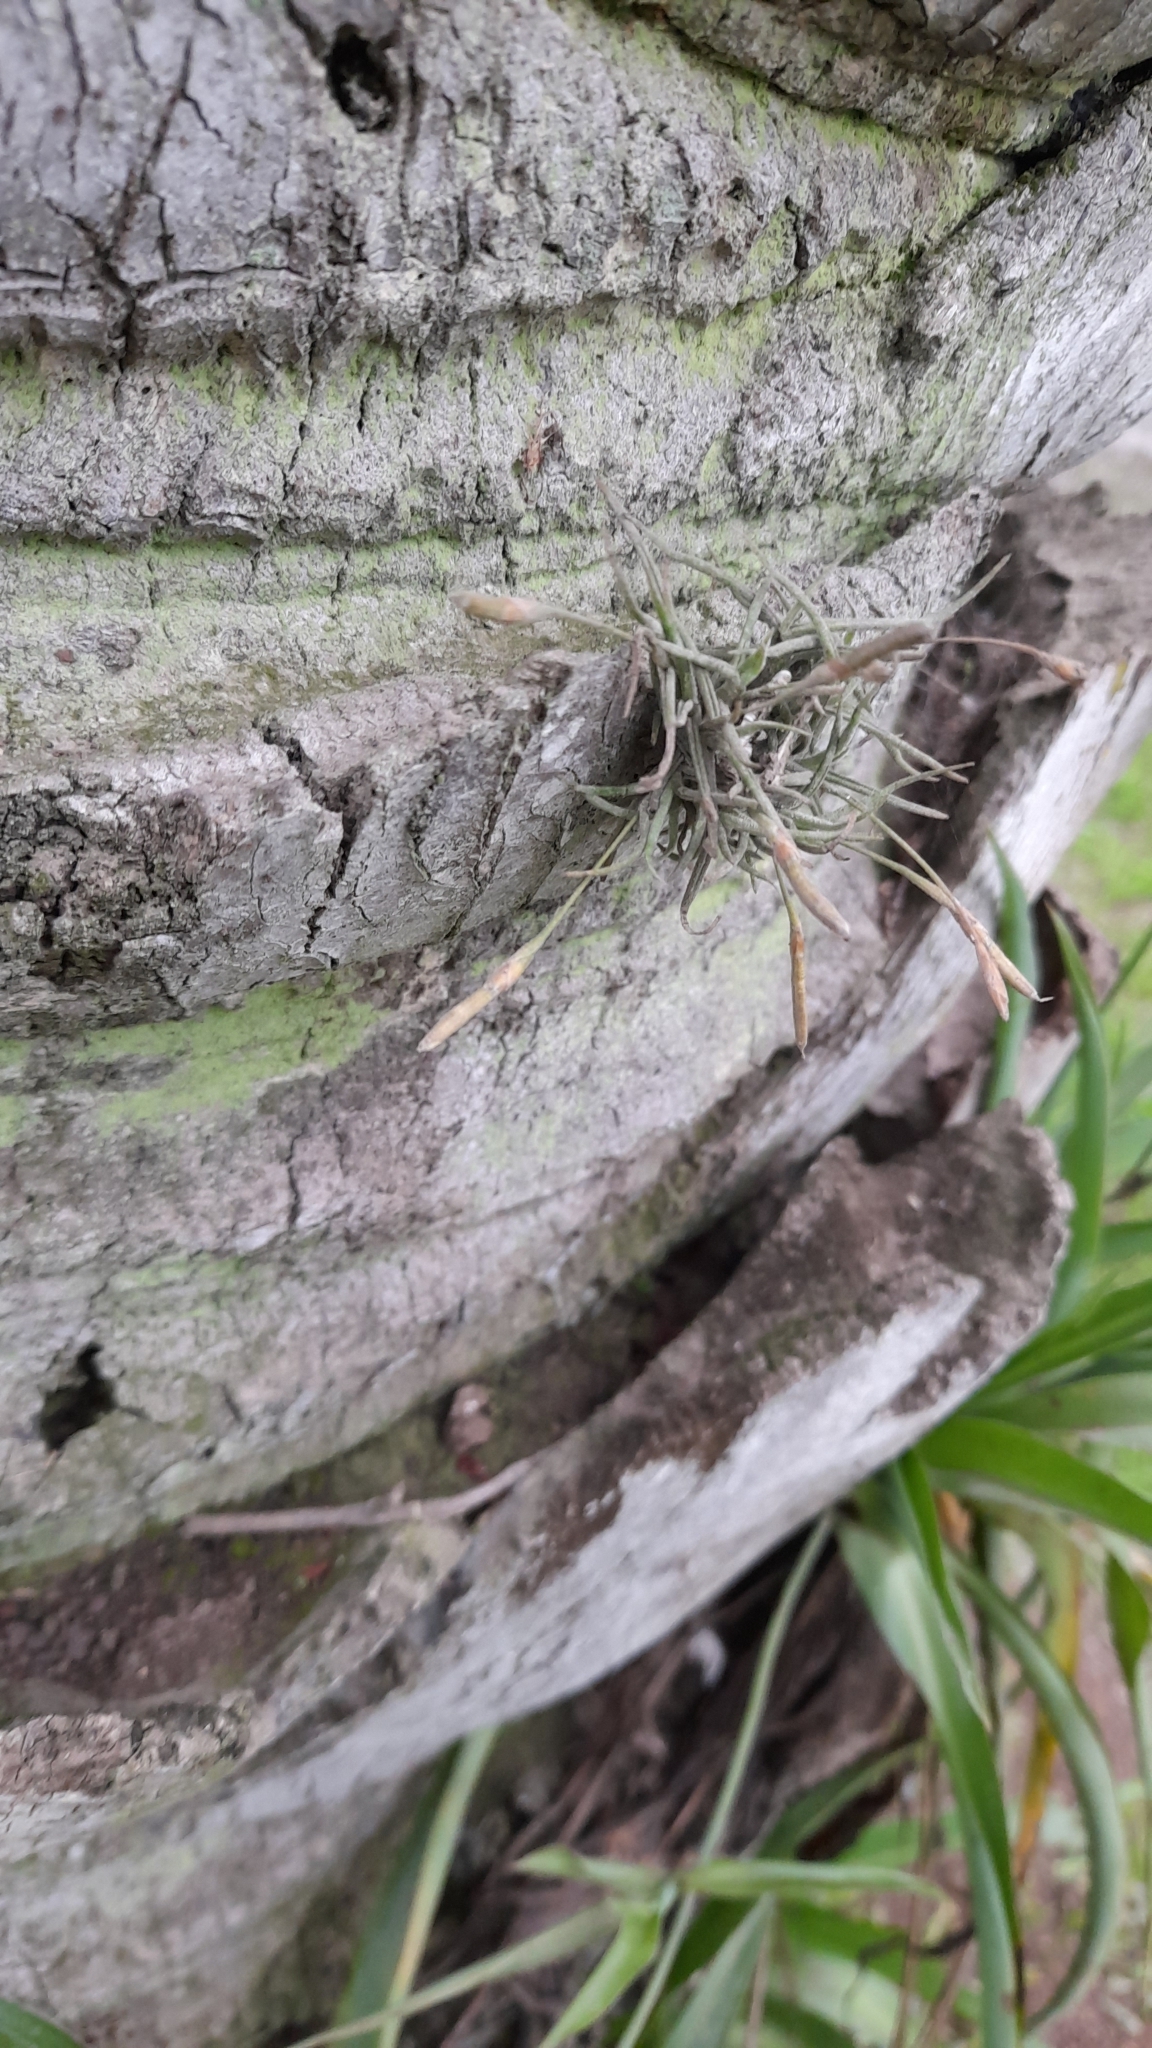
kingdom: Plantae
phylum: Tracheophyta
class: Liliopsida
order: Poales
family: Bromeliaceae
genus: Tillandsia
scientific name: Tillandsia recurvata
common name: Small ballmoss
